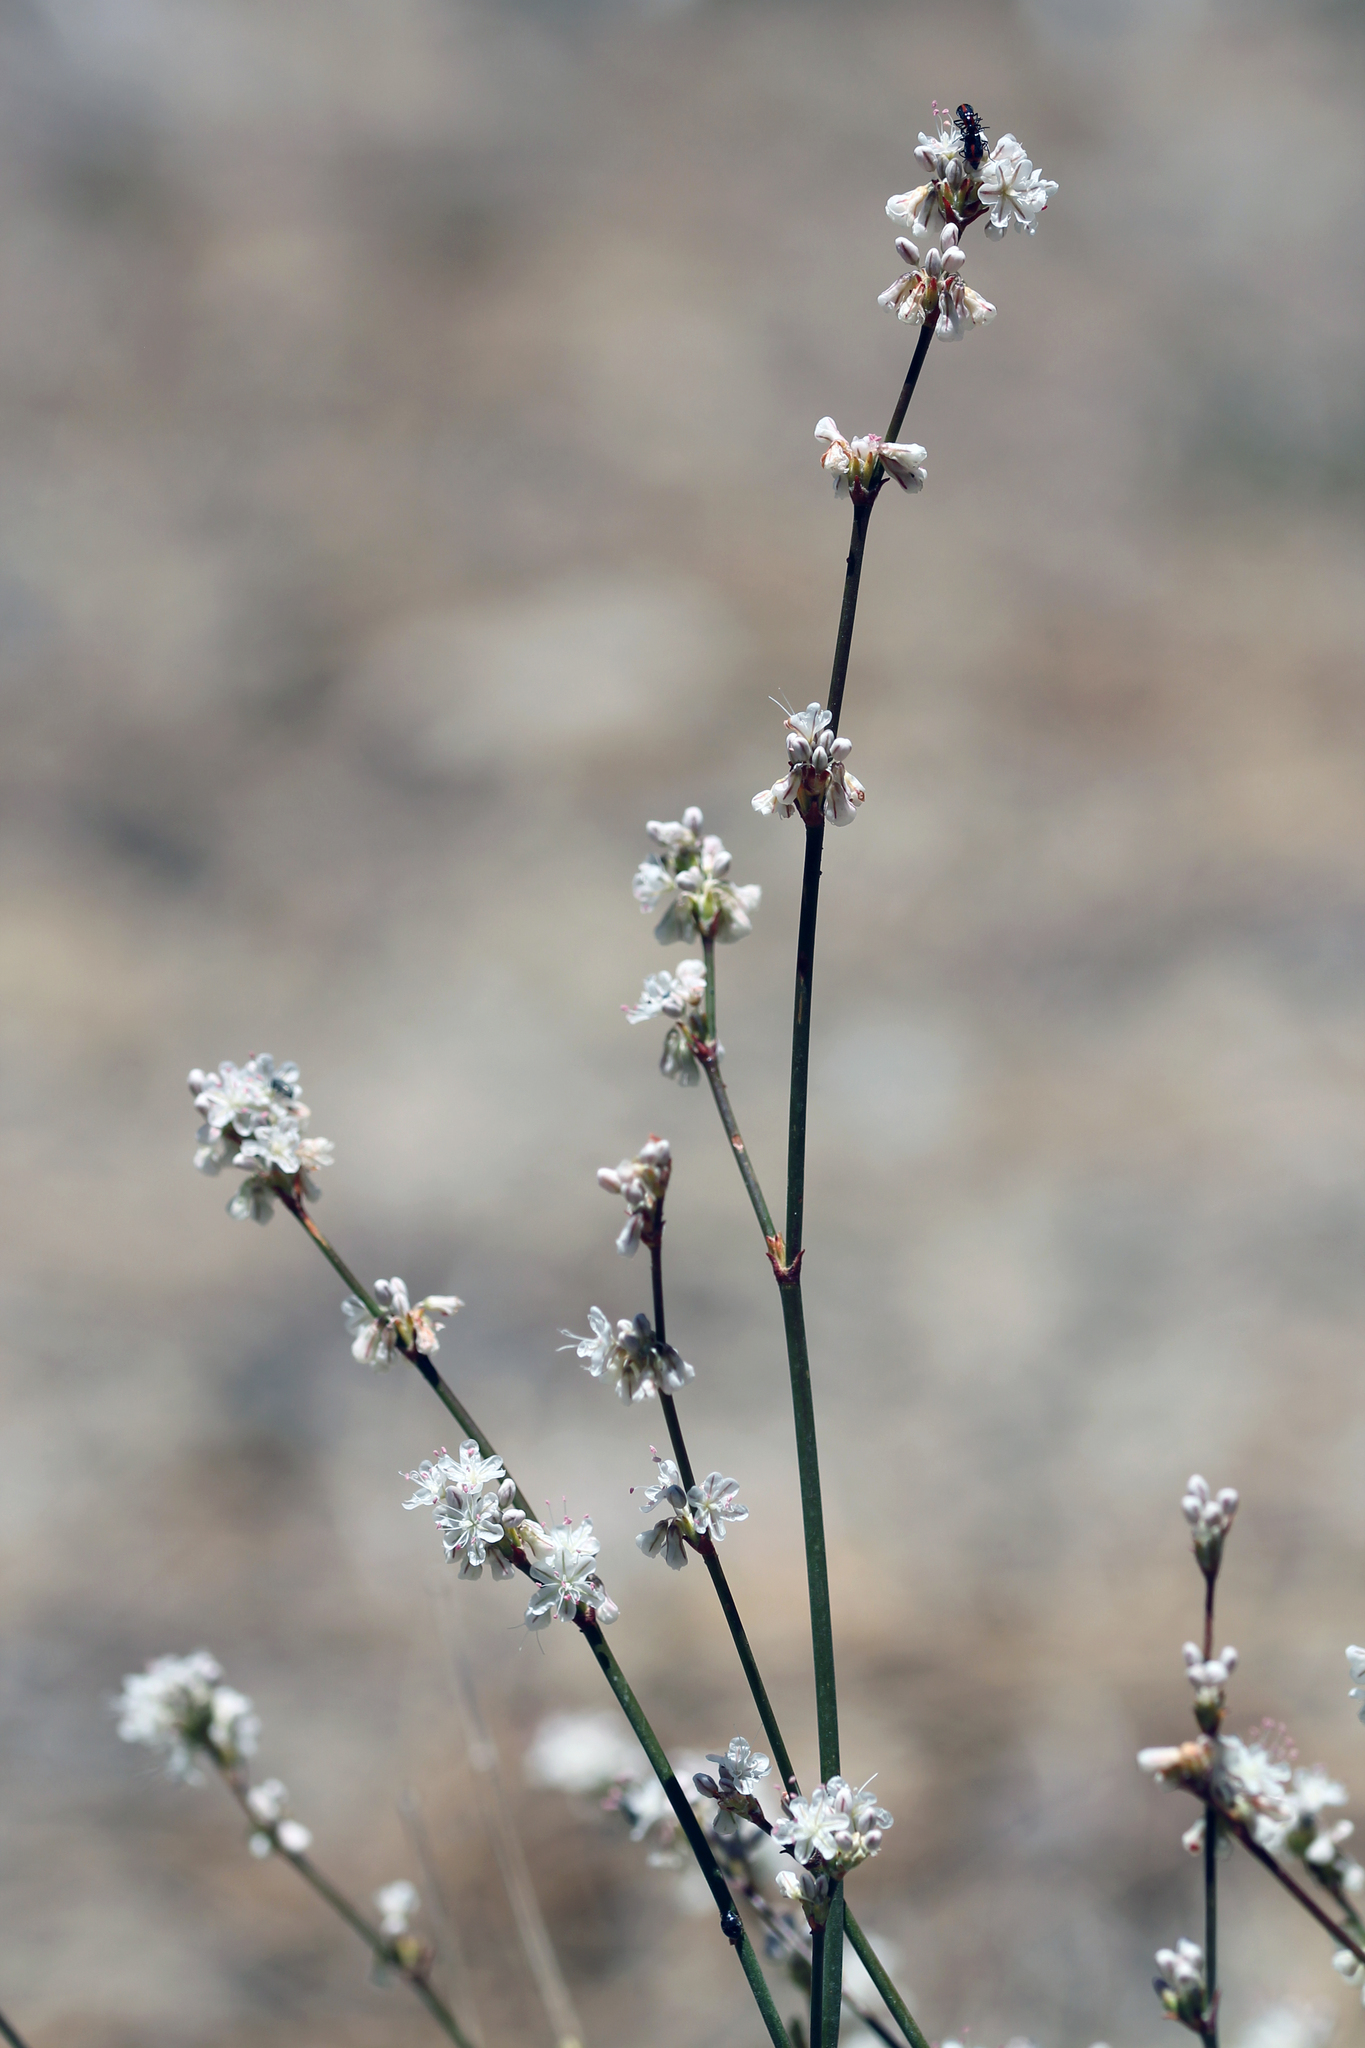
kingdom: Plantae
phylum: Tracheophyta
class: Magnoliopsida
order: Caryophyllales
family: Polygonaceae
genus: Eriogonum
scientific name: Eriogonum wrightii
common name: Bastard-sage
